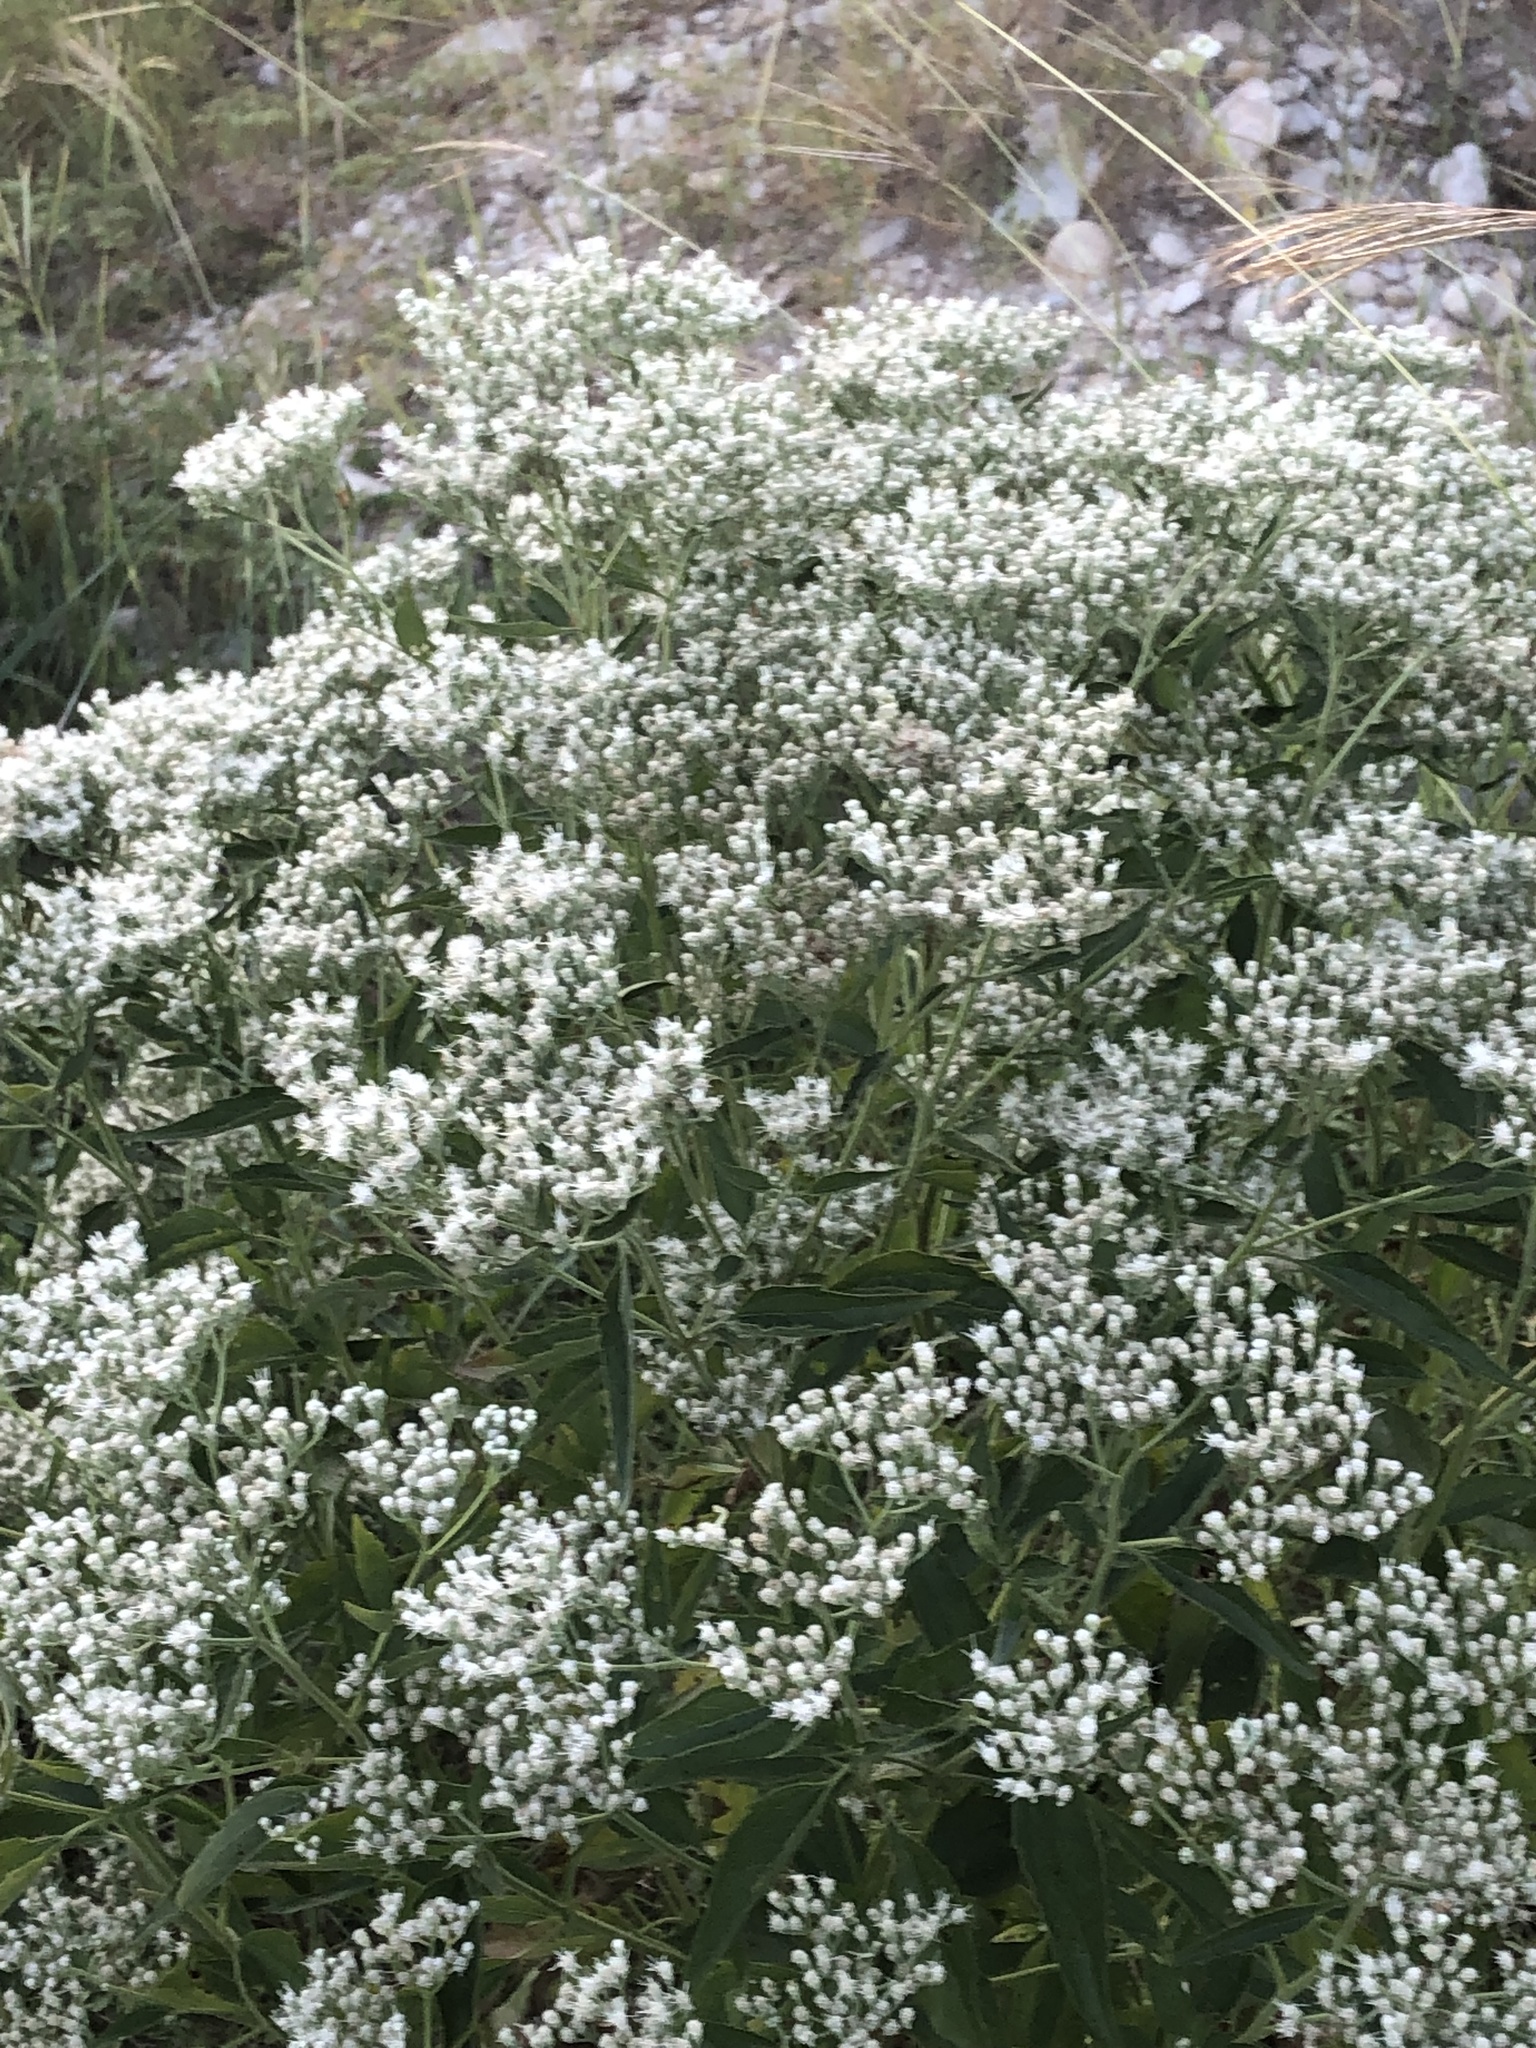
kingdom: Plantae
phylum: Tracheophyta
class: Magnoliopsida
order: Asterales
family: Asteraceae
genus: Eupatorium
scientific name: Eupatorium serotinum
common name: Late boneset
